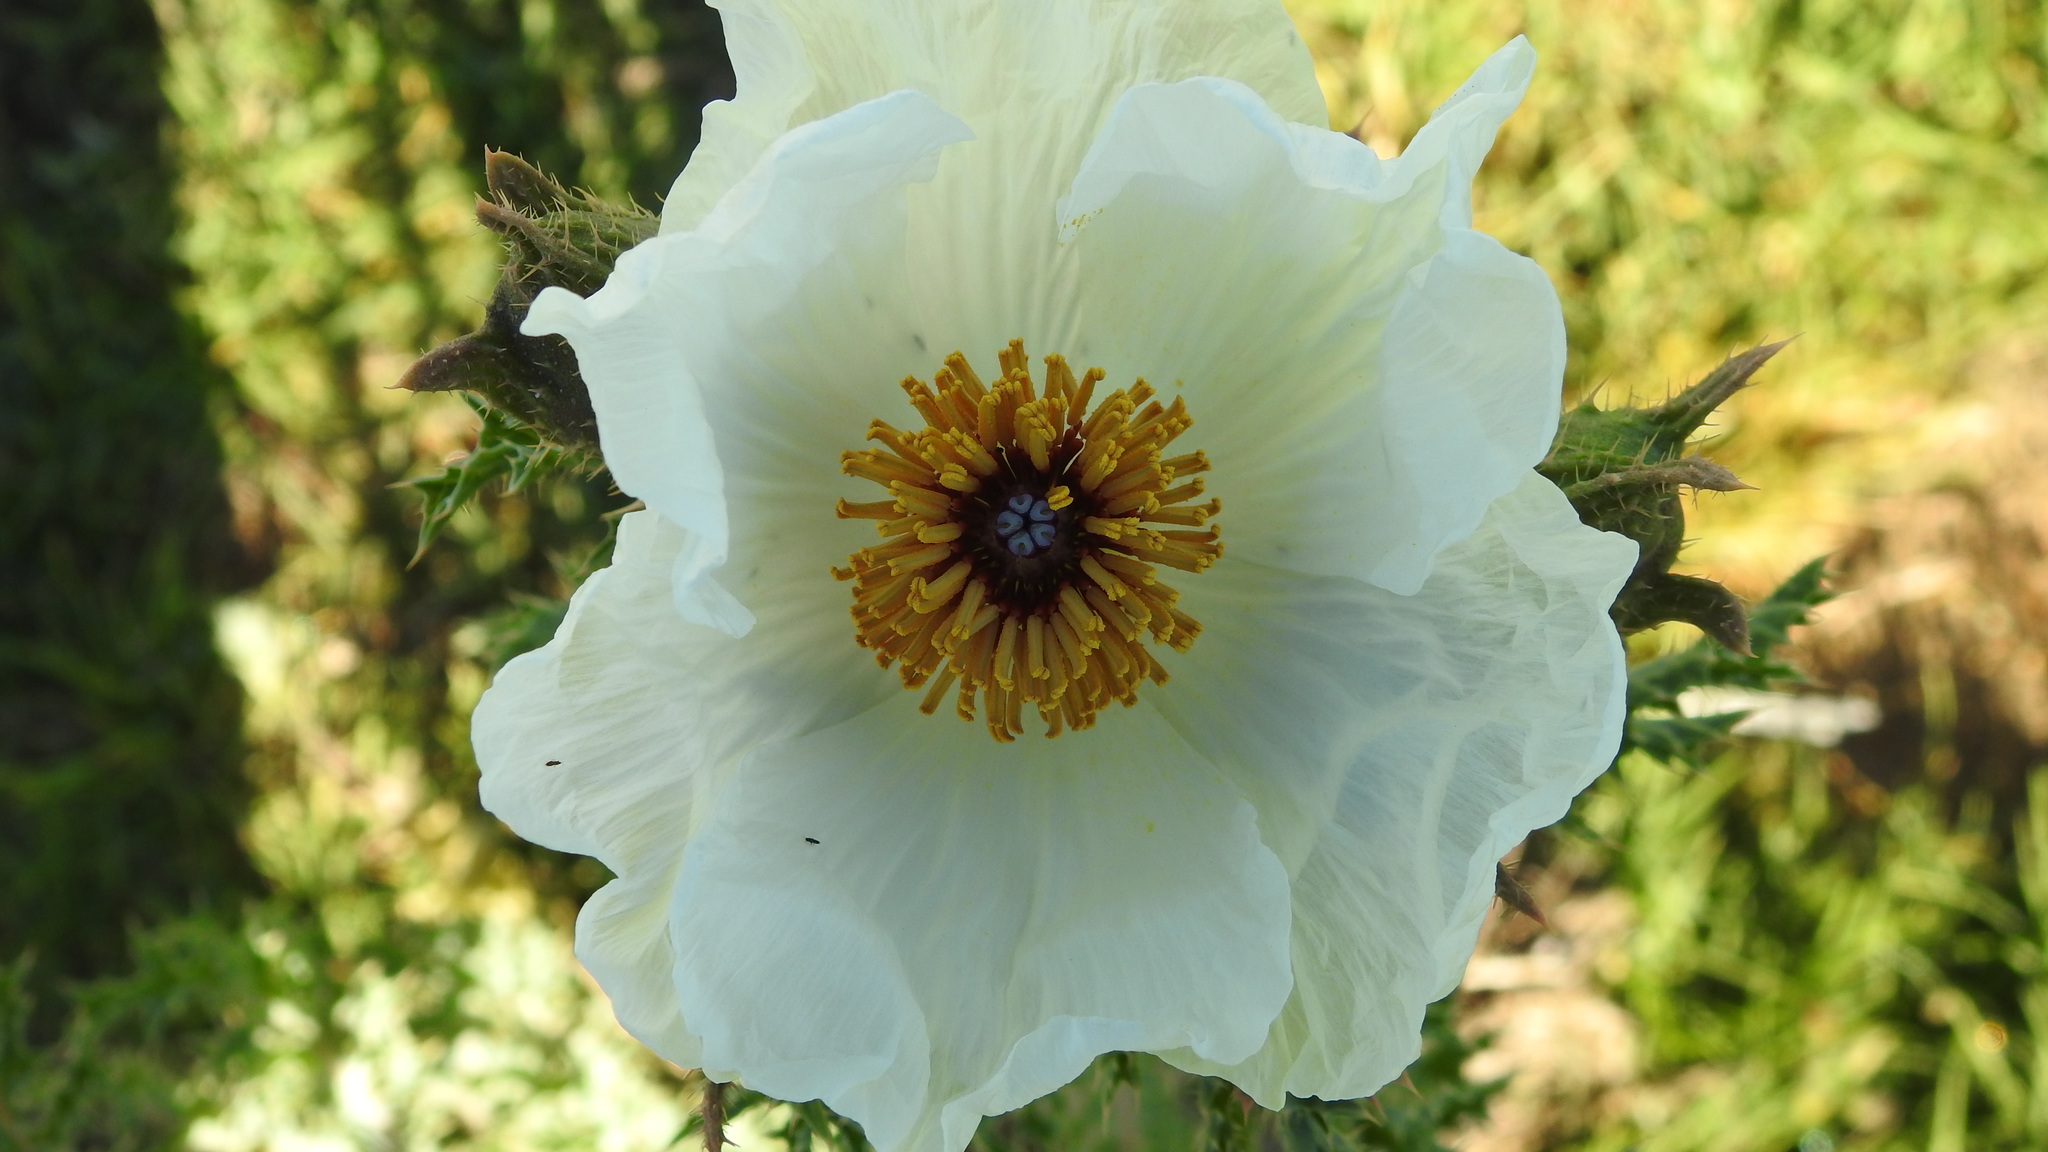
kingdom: Plantae
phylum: Tracheophyta
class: Magnoliopsida
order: Ranunculales
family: Papaveraceae
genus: Argemone
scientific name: Argemone ochroleuca
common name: White-flower mexican-poppy
